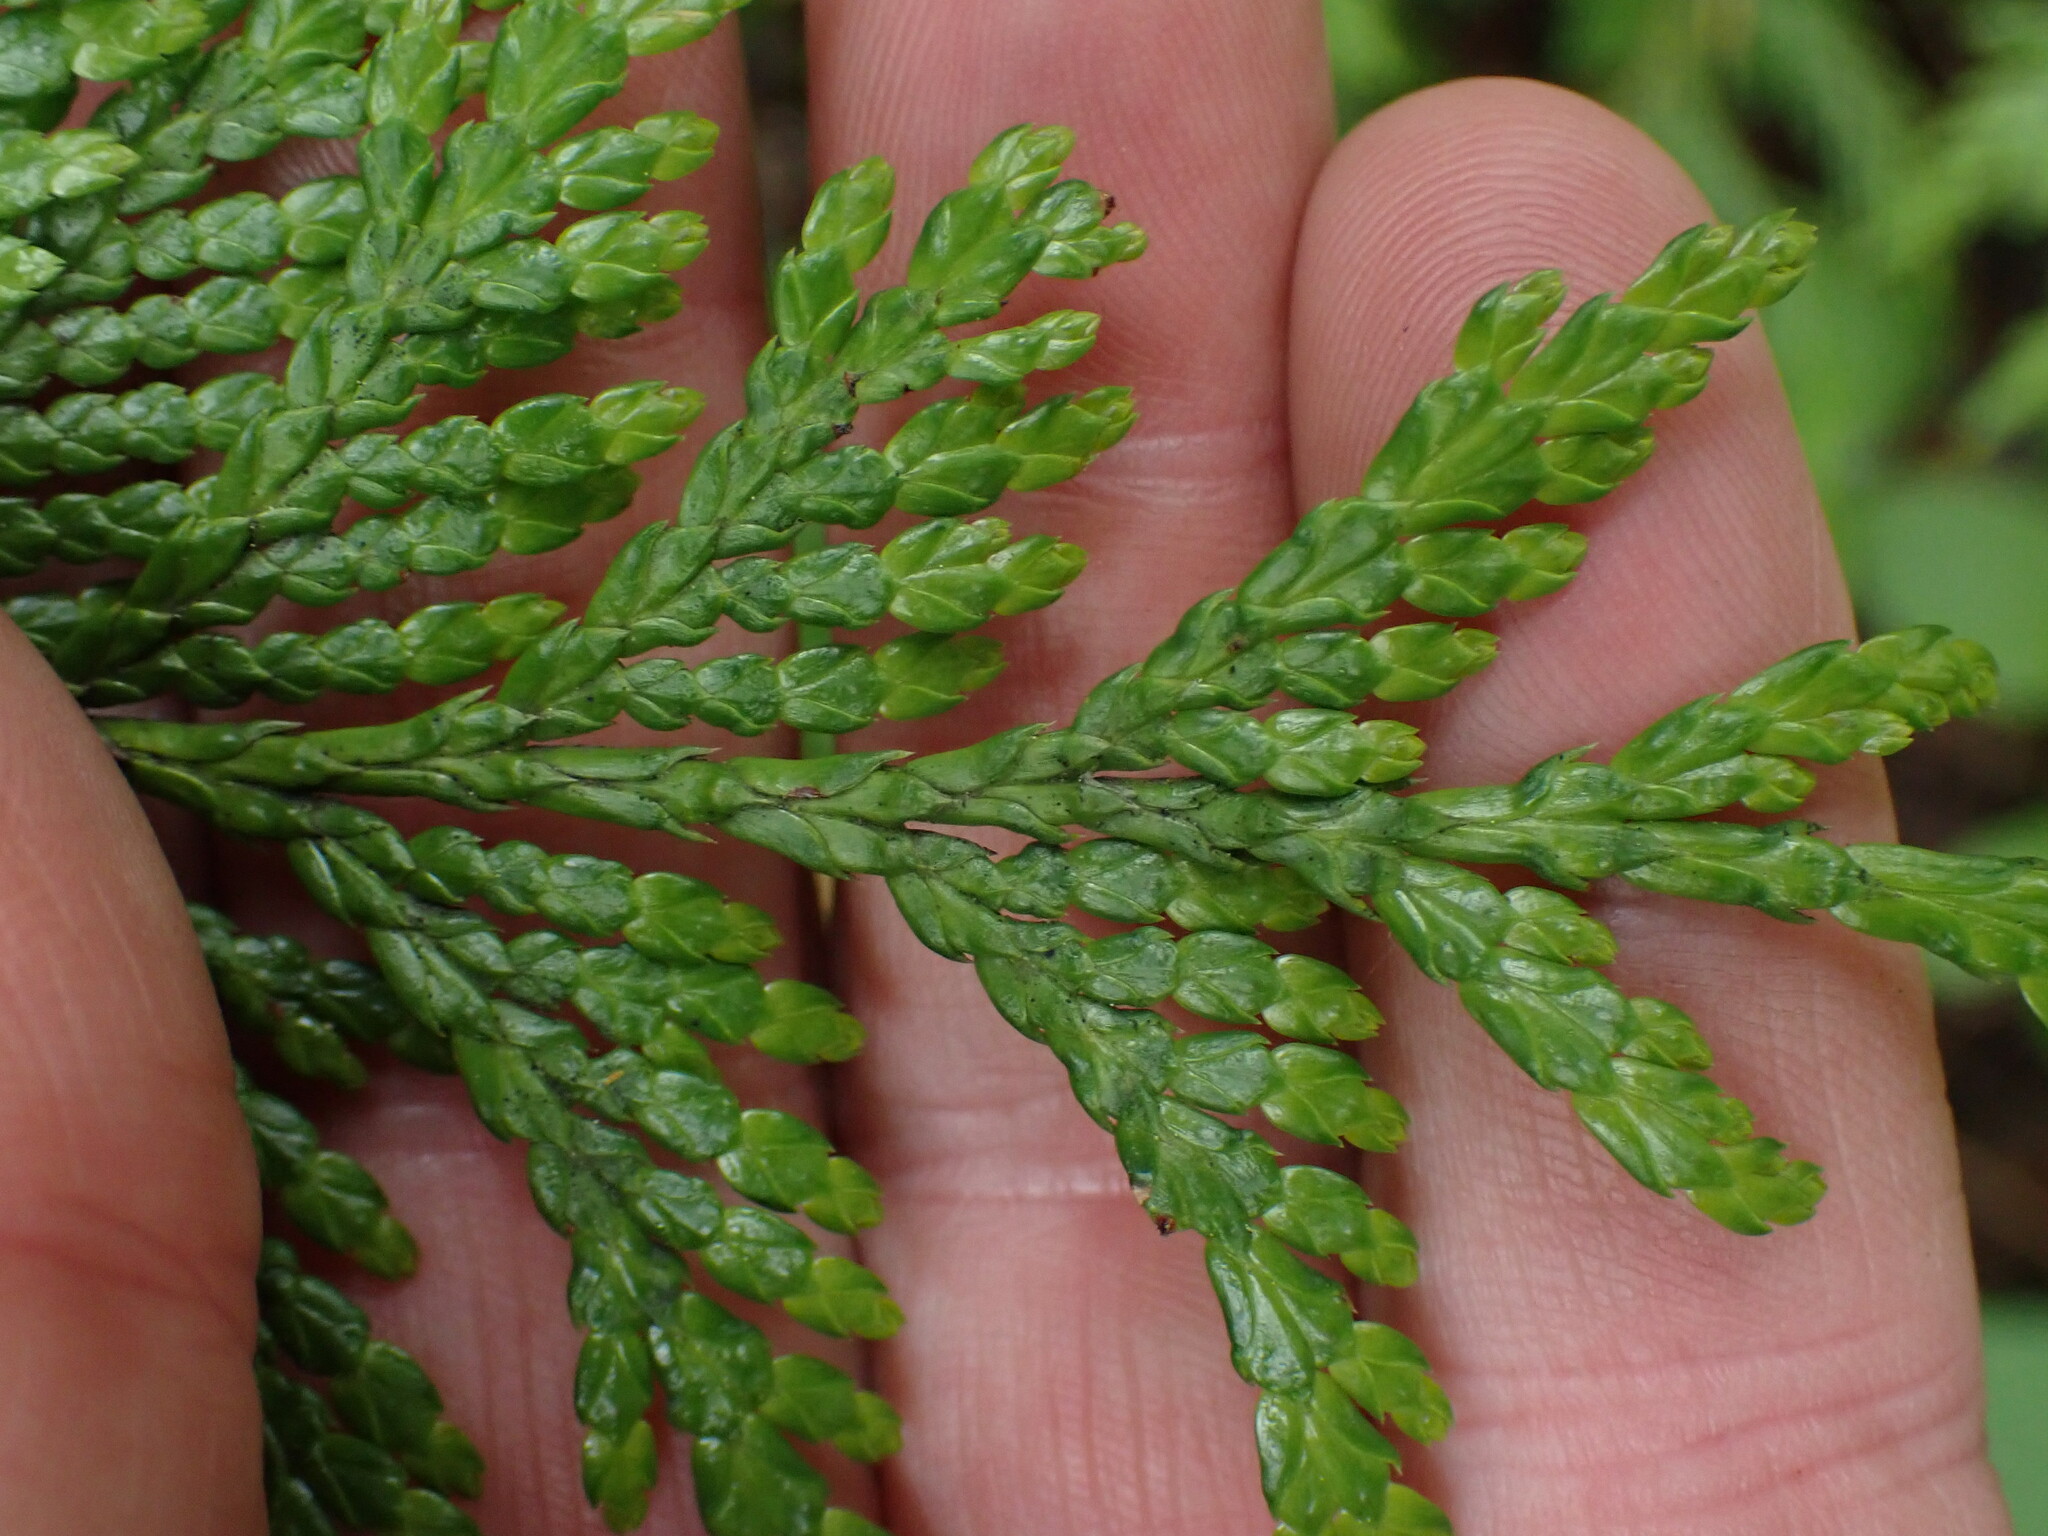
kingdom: Plantae
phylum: Tracheophyta
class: Pinopsida
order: Pinales
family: Cupressaceae
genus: Thuja
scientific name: Thuja plicata
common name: Western red-cedar
